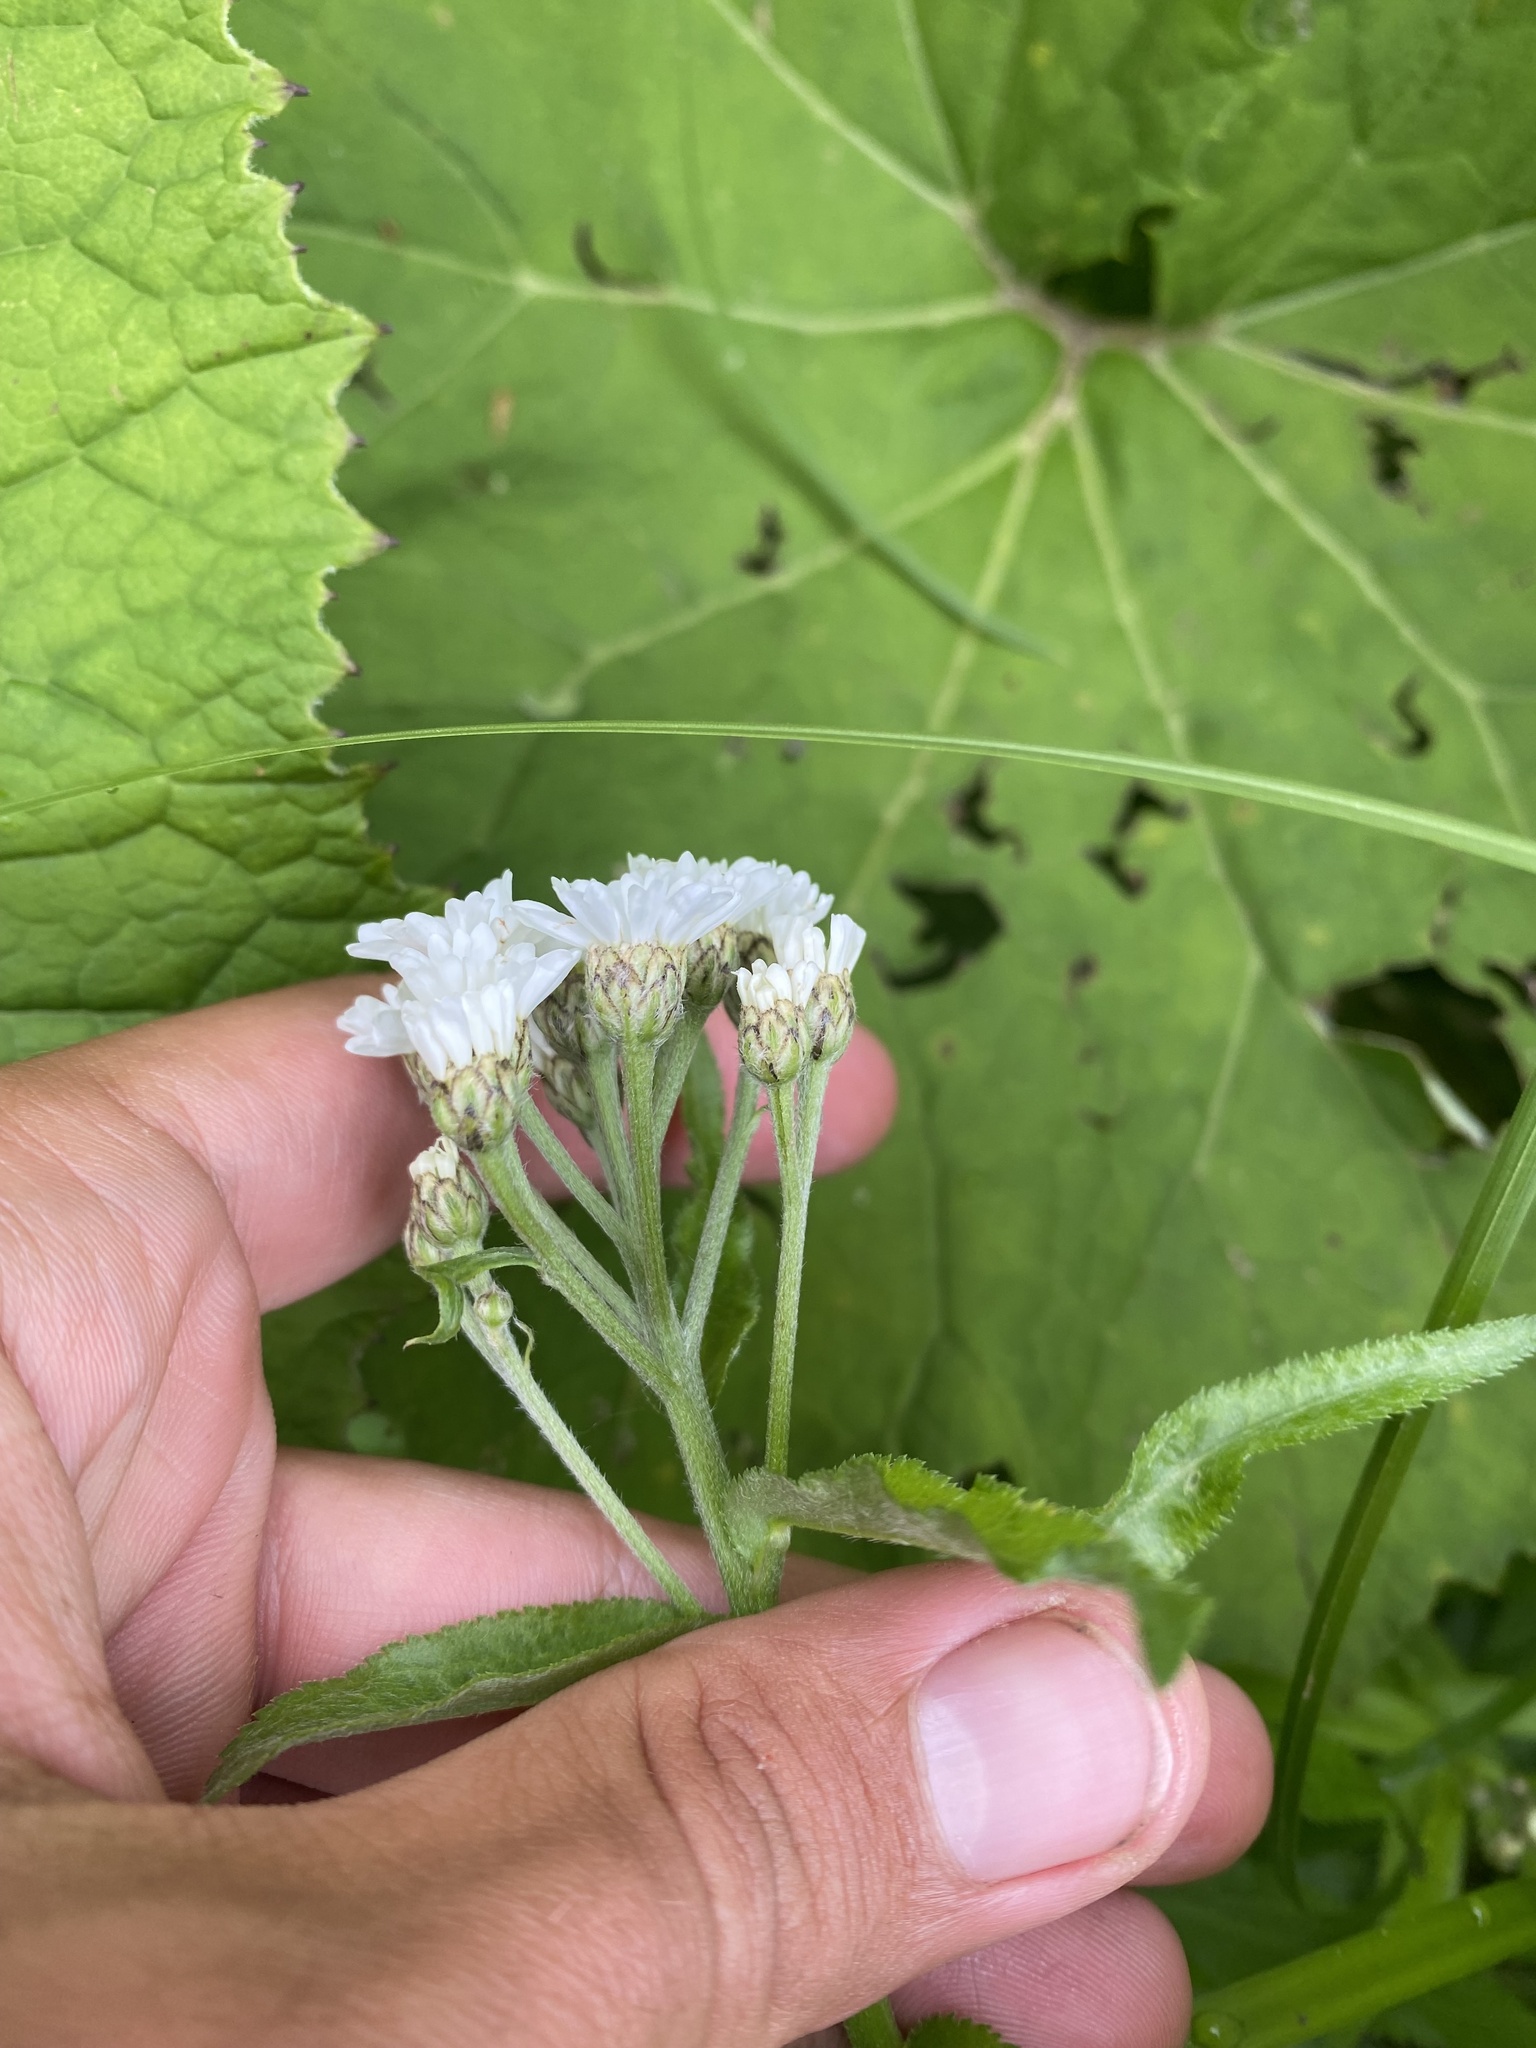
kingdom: Plantae
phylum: Tracheophyta
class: Magnoliopsida
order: Asterales
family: Asteraceae
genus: Achillea
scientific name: Achillea biserrata
